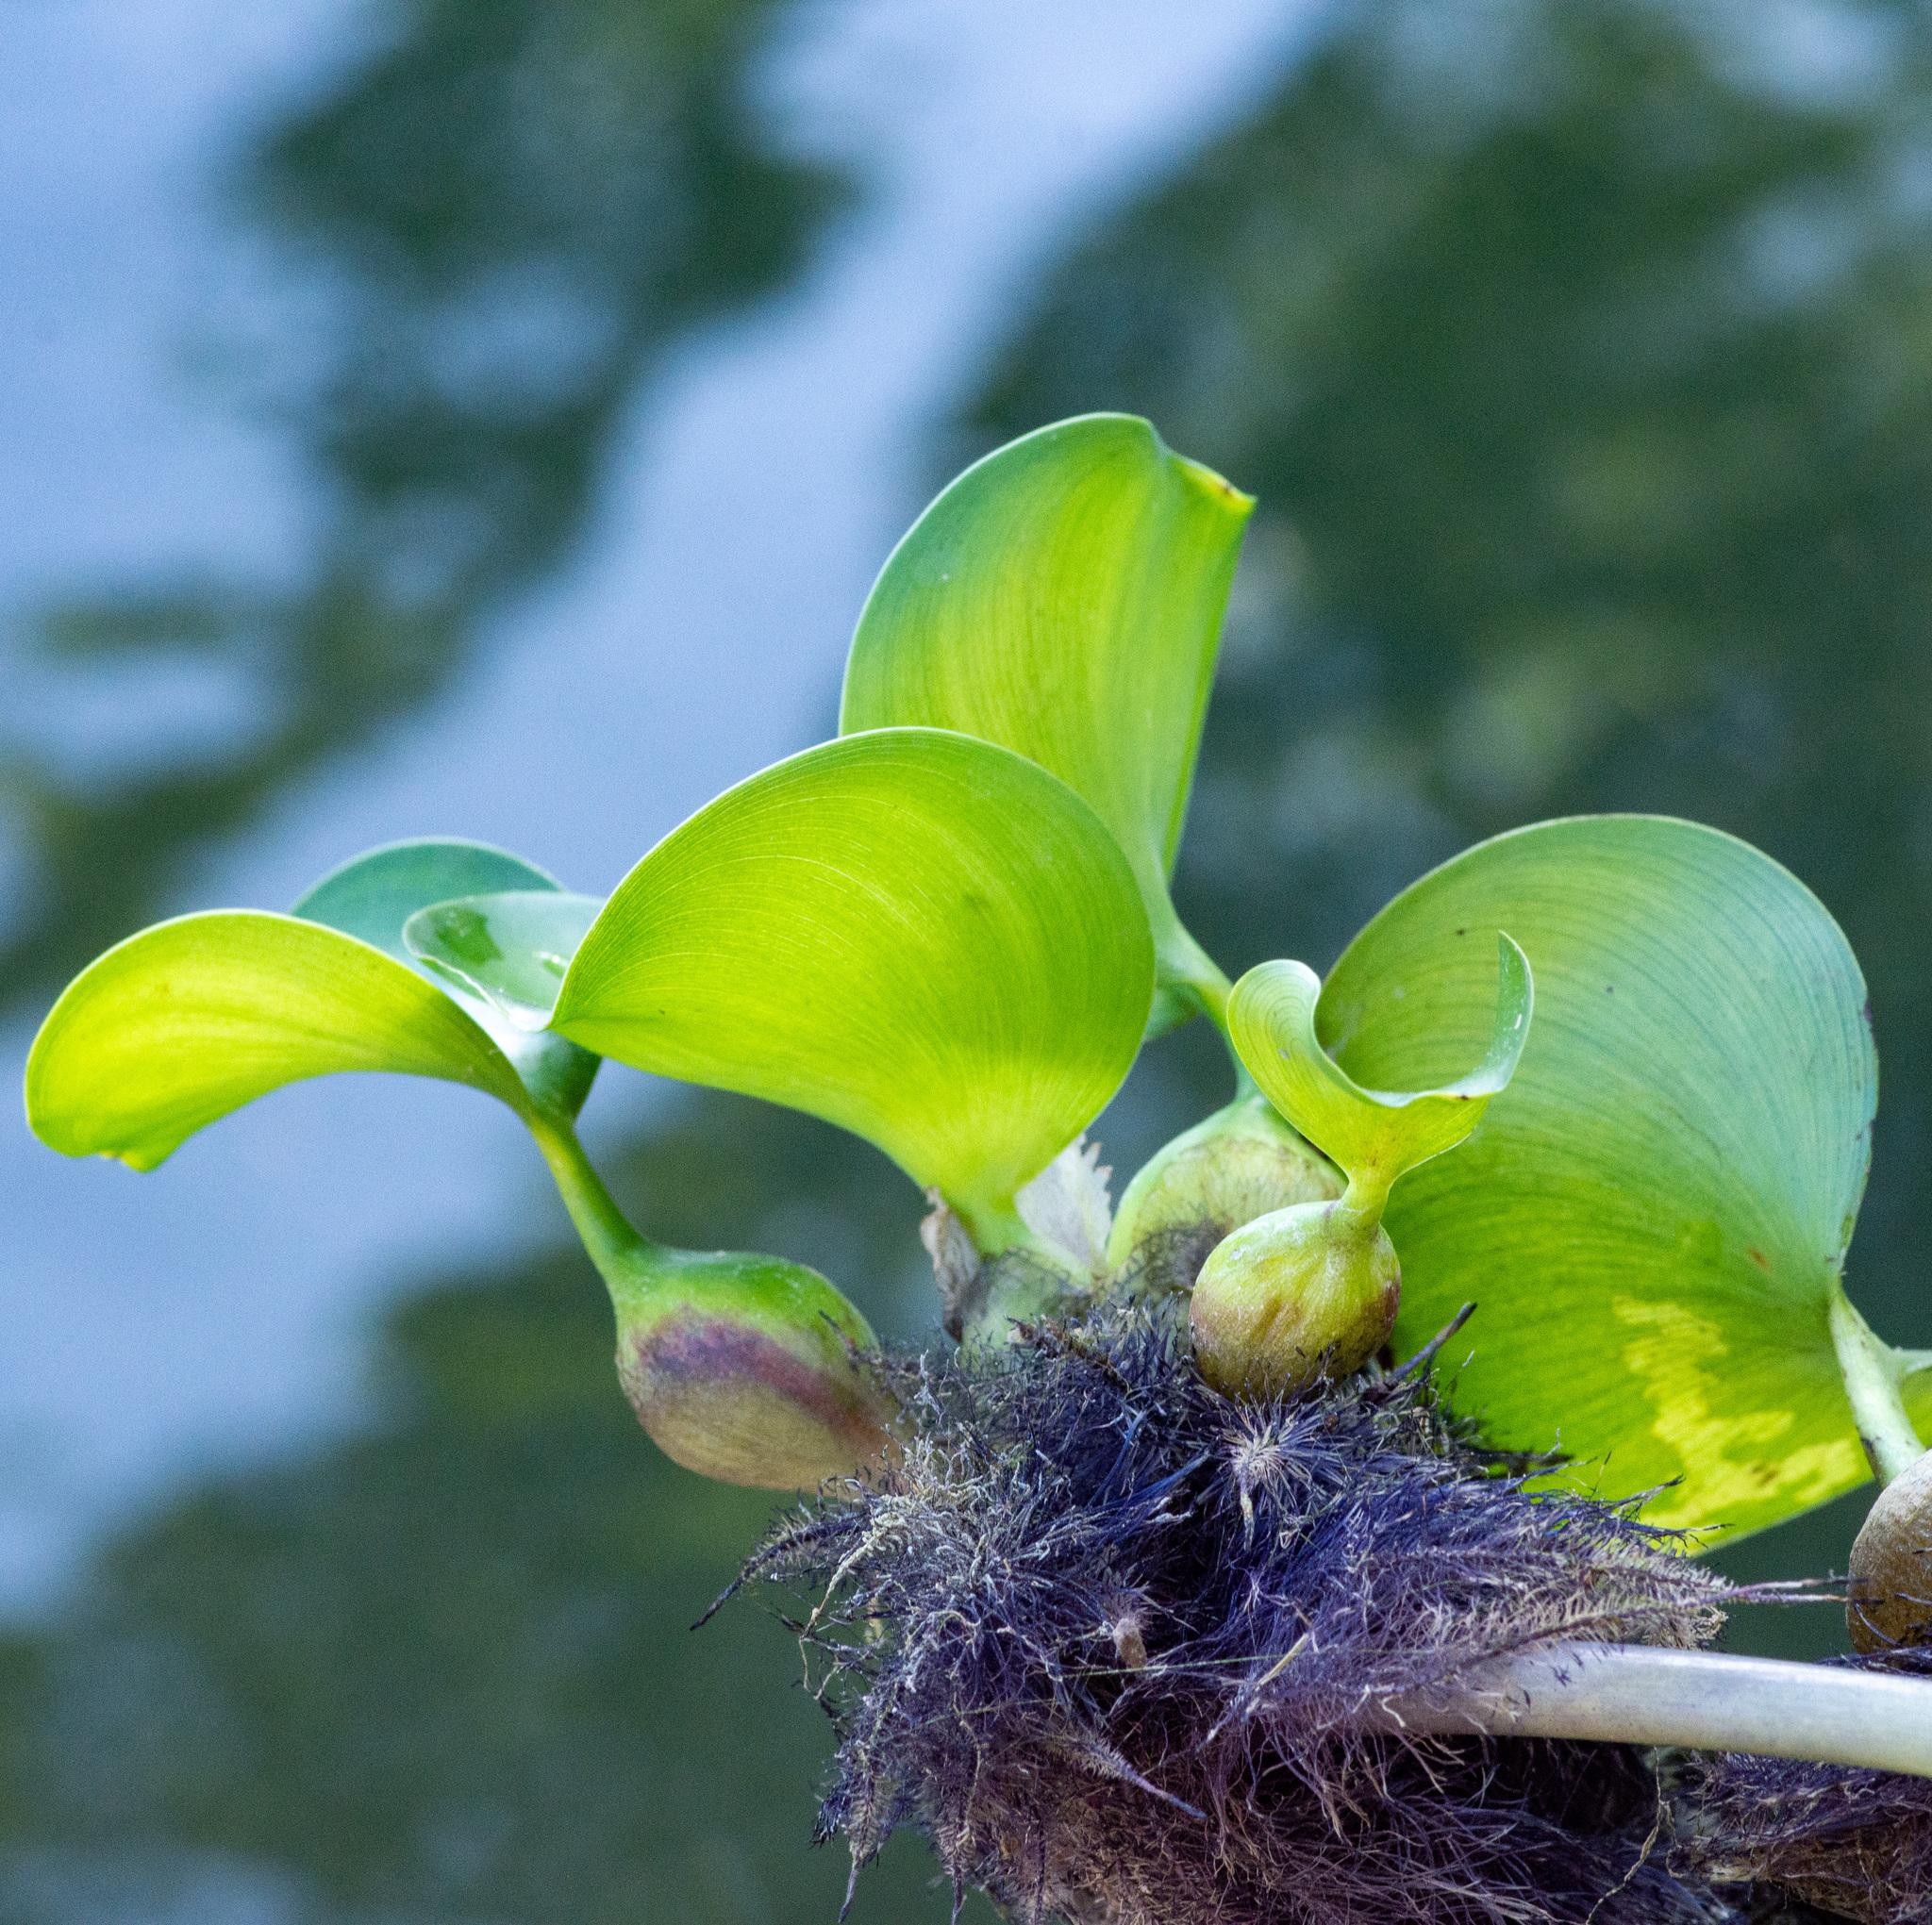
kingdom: Plantae
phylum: Tracheophyta
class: Liliopsida
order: Commelinales
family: Pontederiaceae
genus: Pontederia
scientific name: Pontederia crassipes
